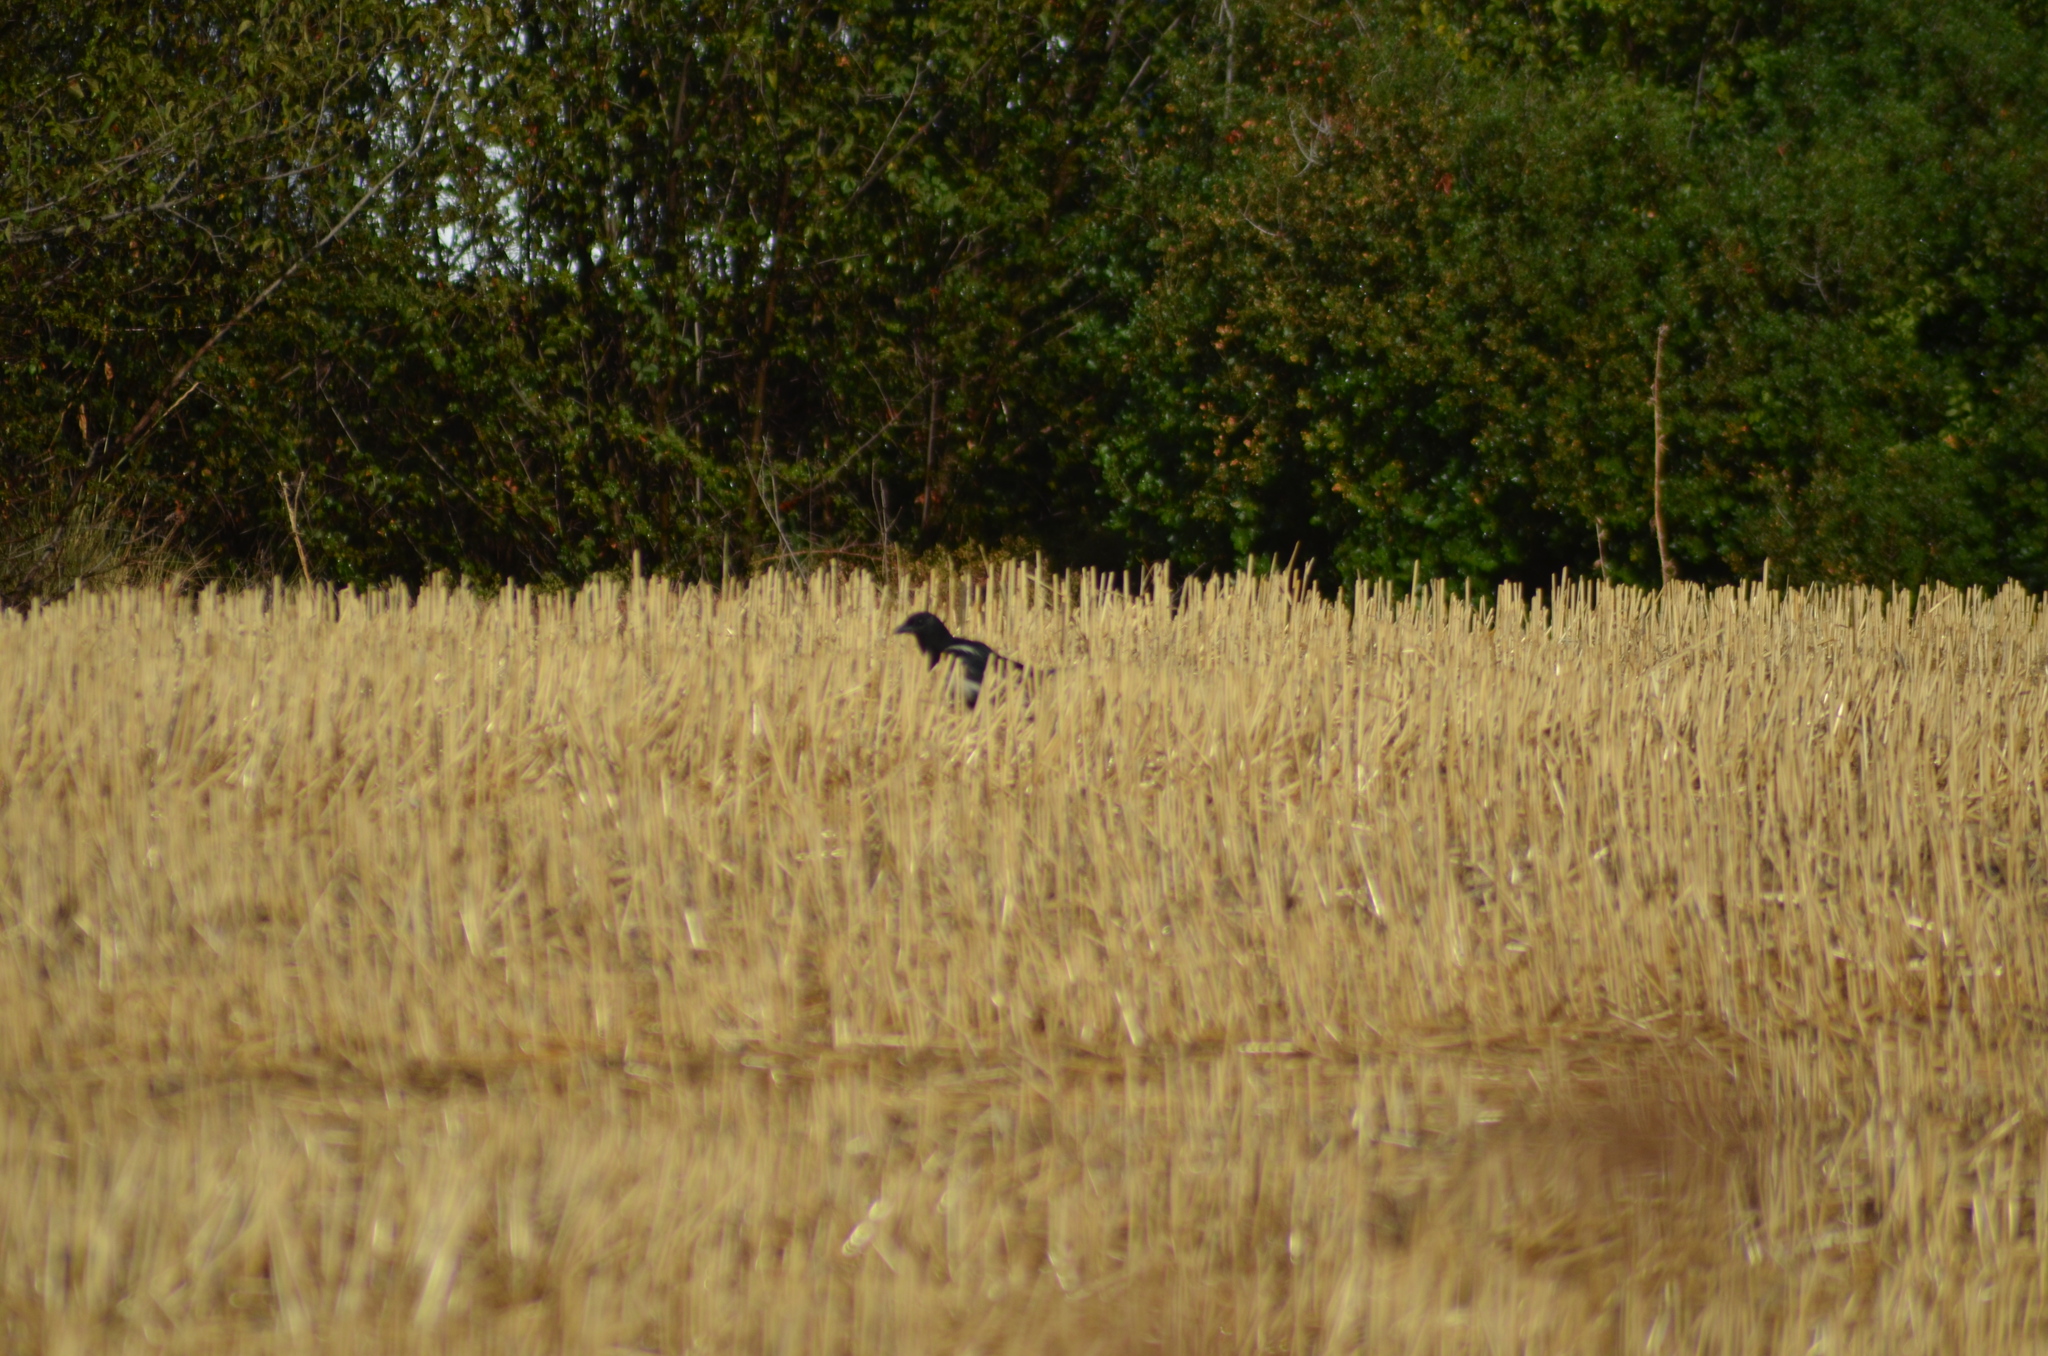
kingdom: Animalia
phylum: Chordata
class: Aves
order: Passeriformes
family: Corvidae
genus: Pica
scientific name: Pica pica
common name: Eurasian magpie
